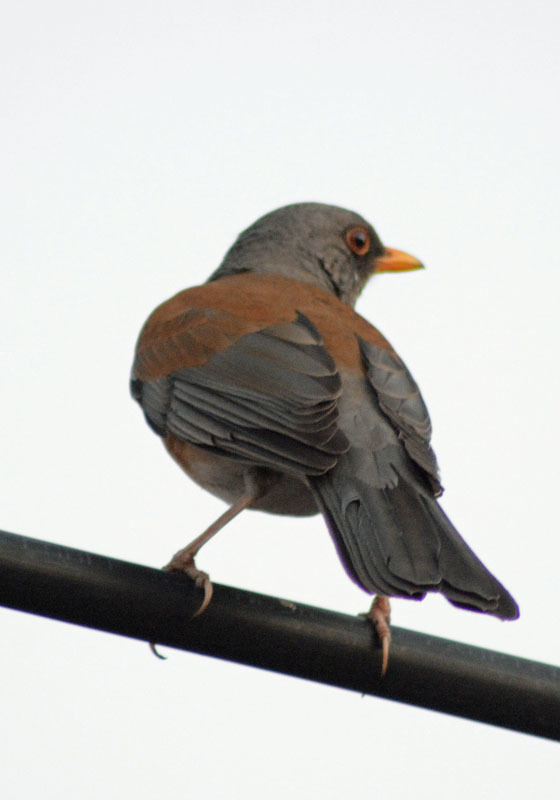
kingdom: Animalia
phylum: Chordata
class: Aves
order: Passeriformes
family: Turdidae
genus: Turdus
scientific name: Turdus rufopalliatus
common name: Rufous-backed robin
